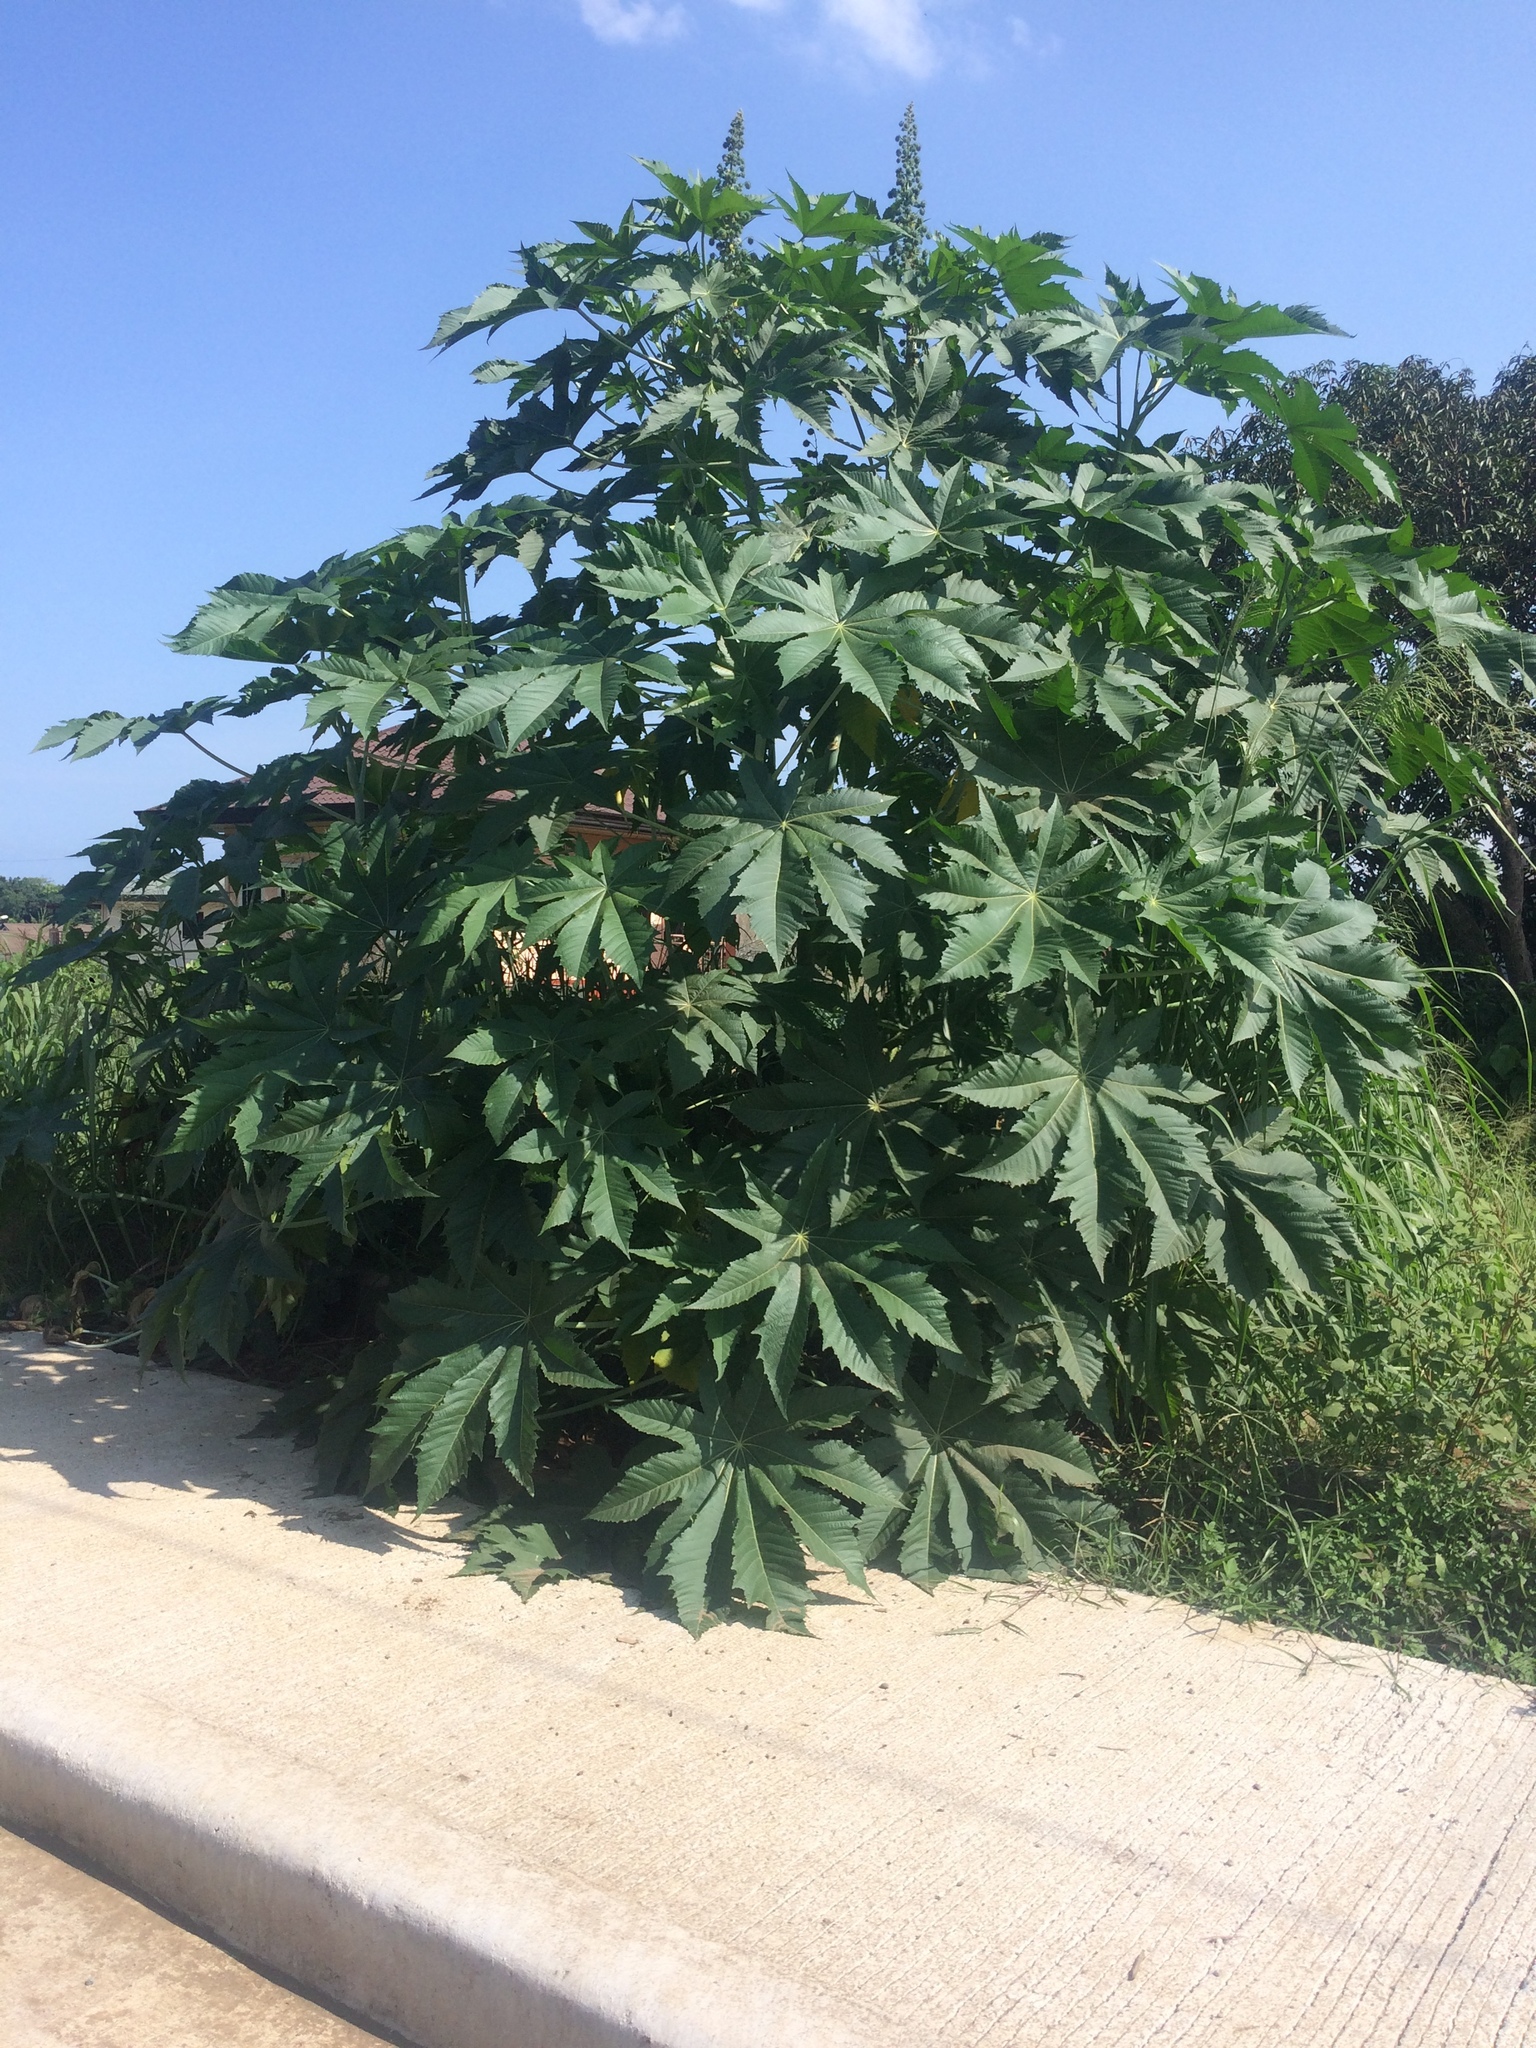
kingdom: Plantae
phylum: Tracheophyta
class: Magnoliopsida
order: Malpighiales
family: Euphorbiaceae
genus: Ricinus
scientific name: Ricinus communis
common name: Castor-oil-plant
